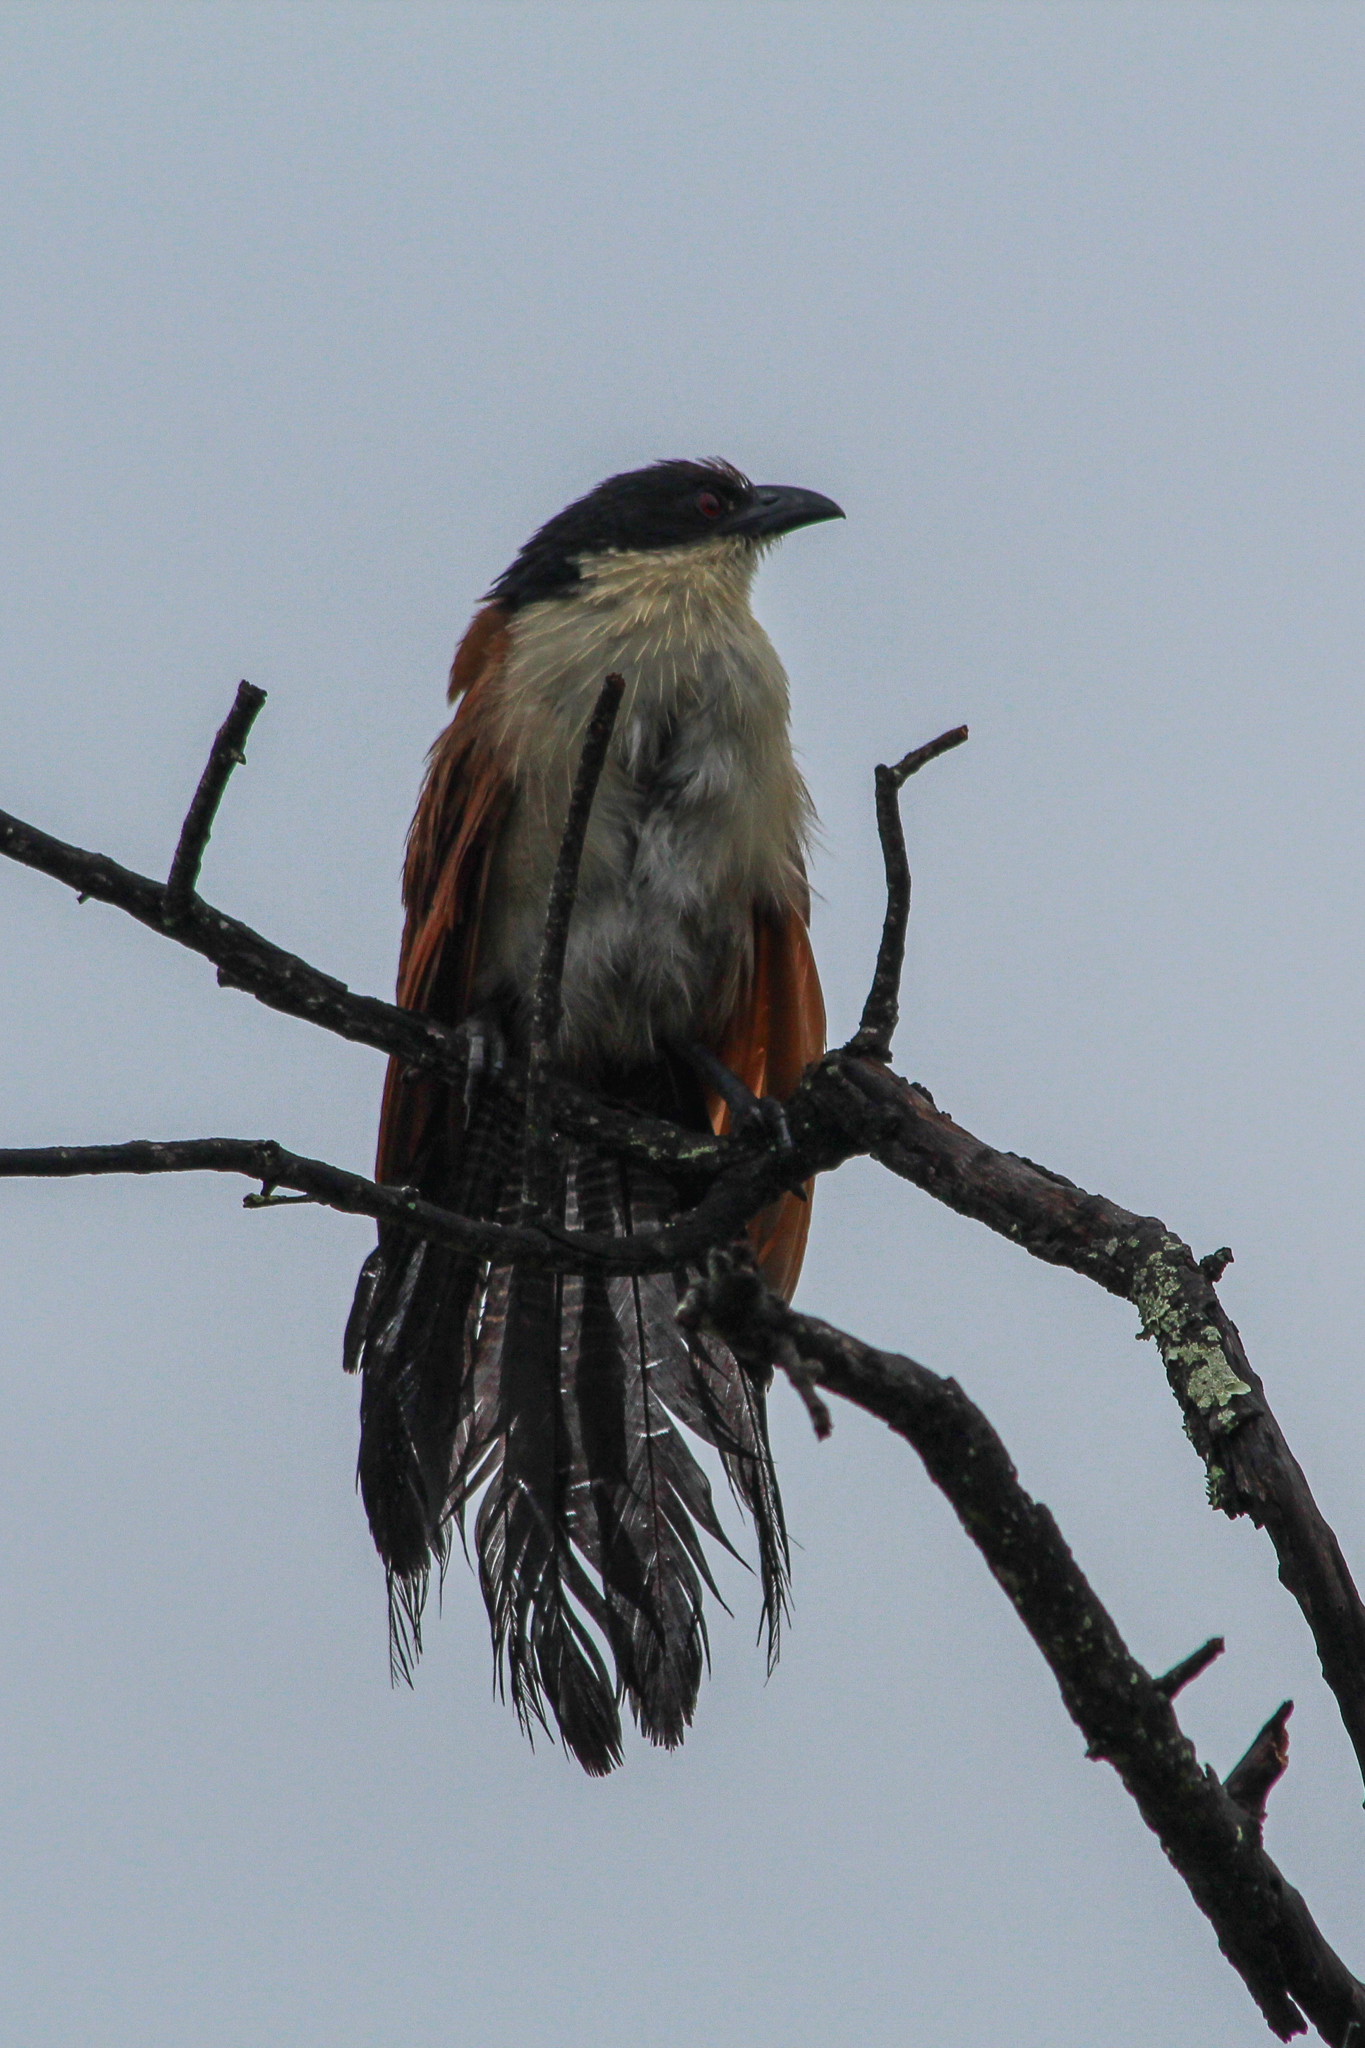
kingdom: Animalia
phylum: Chordata
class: Aves
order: Cuculiformes
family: Cuculidae
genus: Centropus
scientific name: Centropus superciliosus
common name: White-browed coucal
